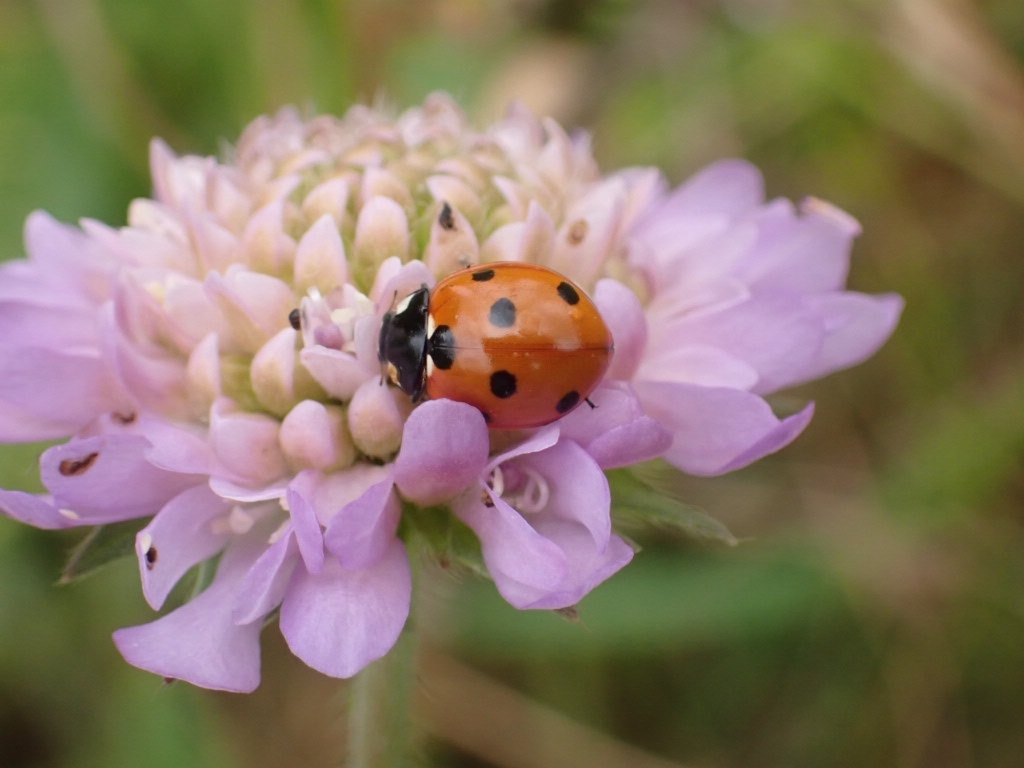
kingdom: Animalia
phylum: Arthropoda
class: Insecta
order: Coleoptera
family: Coccinellidae
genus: Coccinella
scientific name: Coccinella septempunctata
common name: Sevenspotted lady beetle
